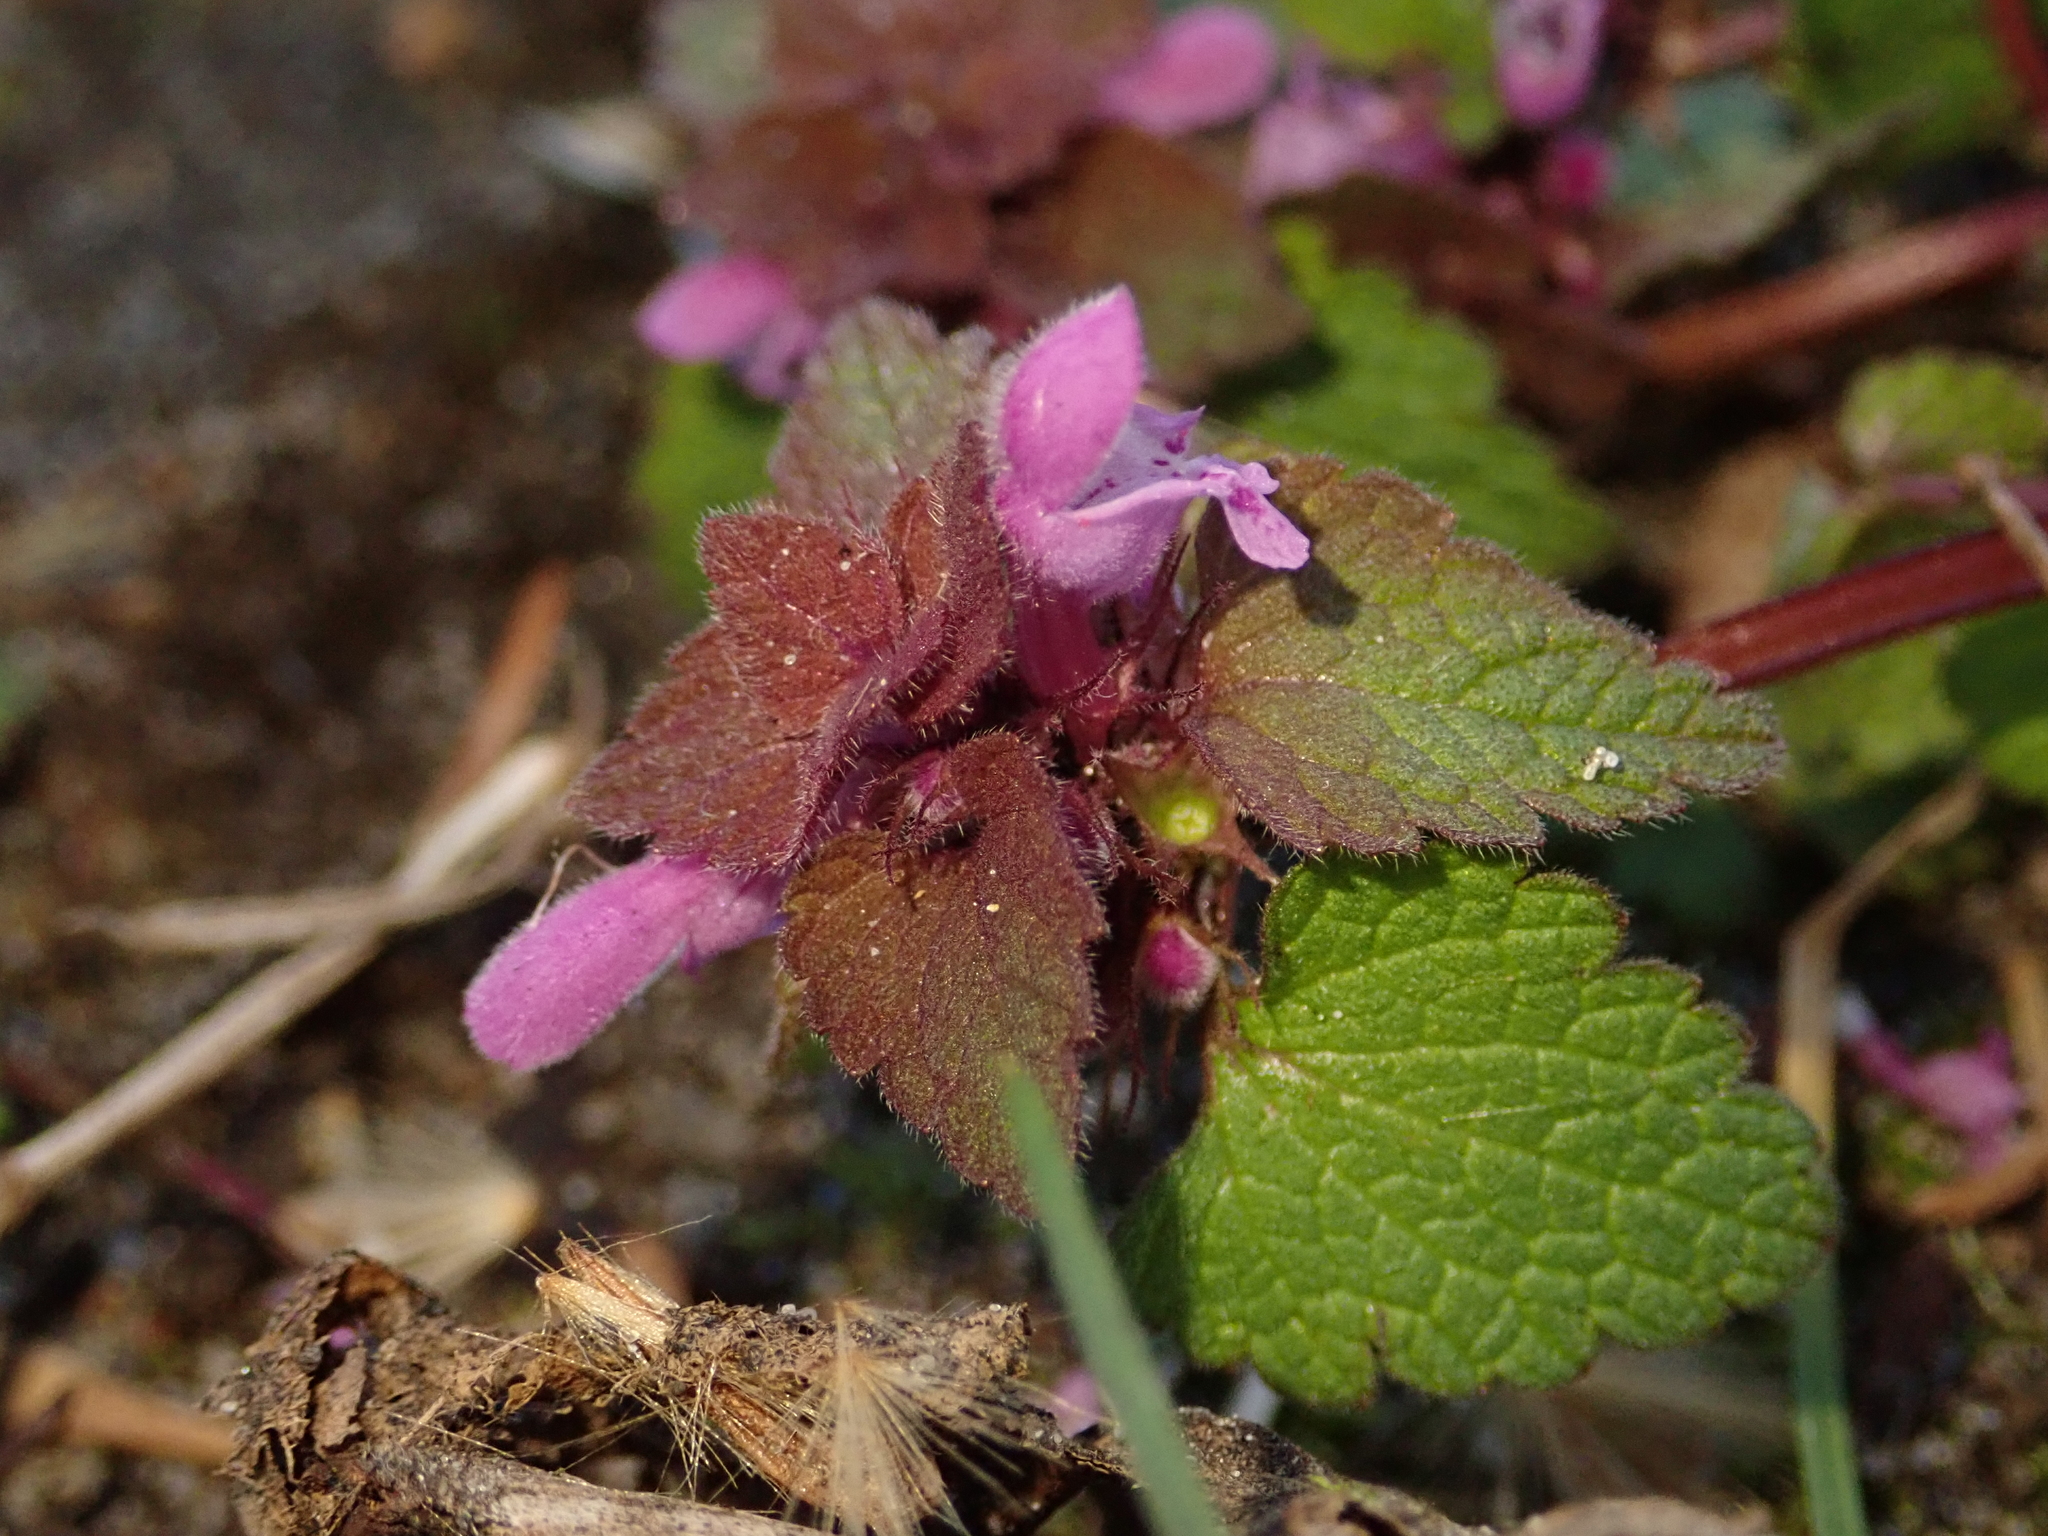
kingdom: Plantae
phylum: Tracheophyta
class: Magnoliopsida
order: Lamiales
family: Lamiaceae
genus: Lamium
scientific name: Lamium purpureum
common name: Red dead-nettle
